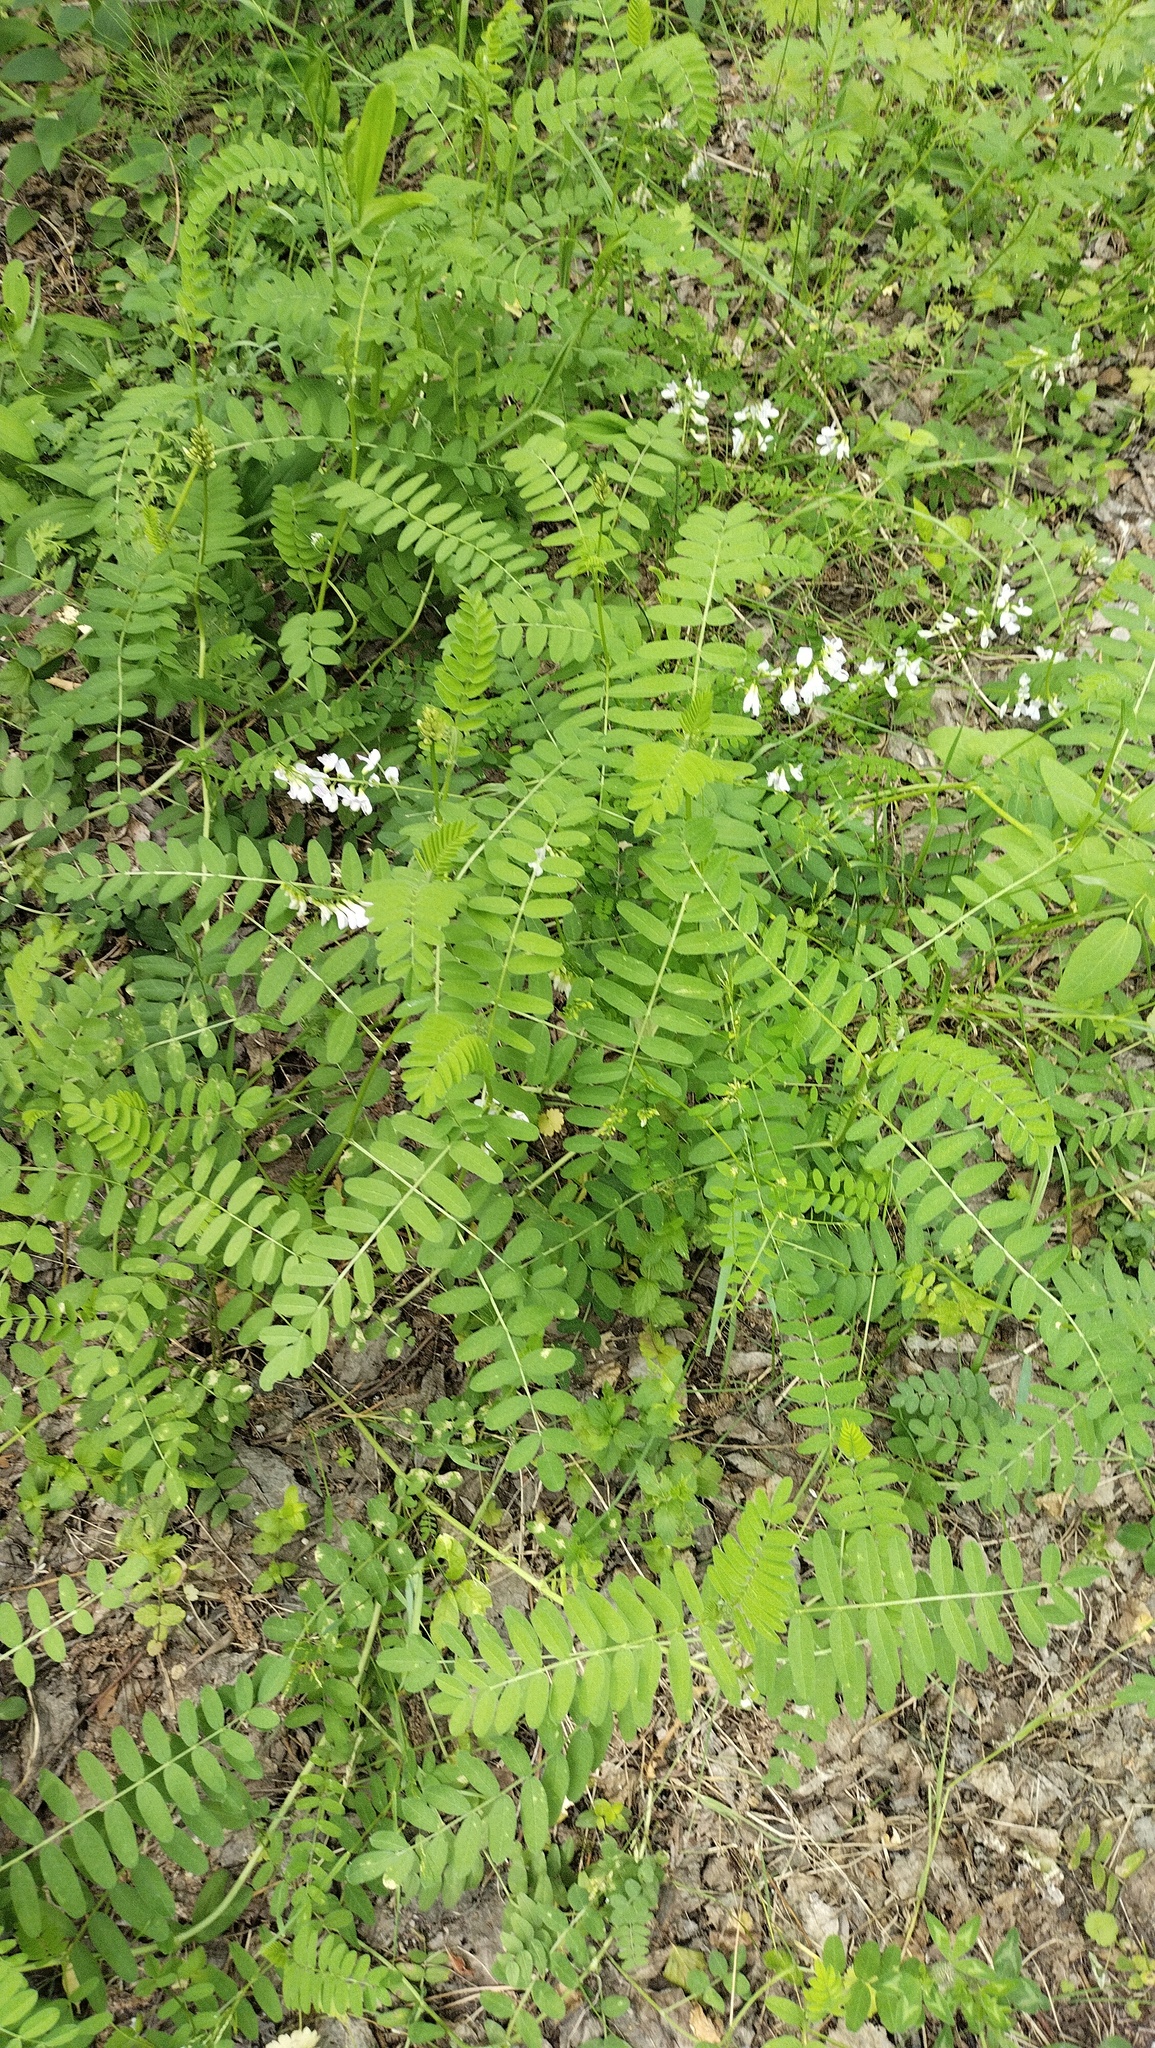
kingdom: Plantae
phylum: Tracheophyta
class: Magnoliopsida
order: Fabales
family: Fabaceae
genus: Vicia
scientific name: Vicia sylvatica
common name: Wood vetch
